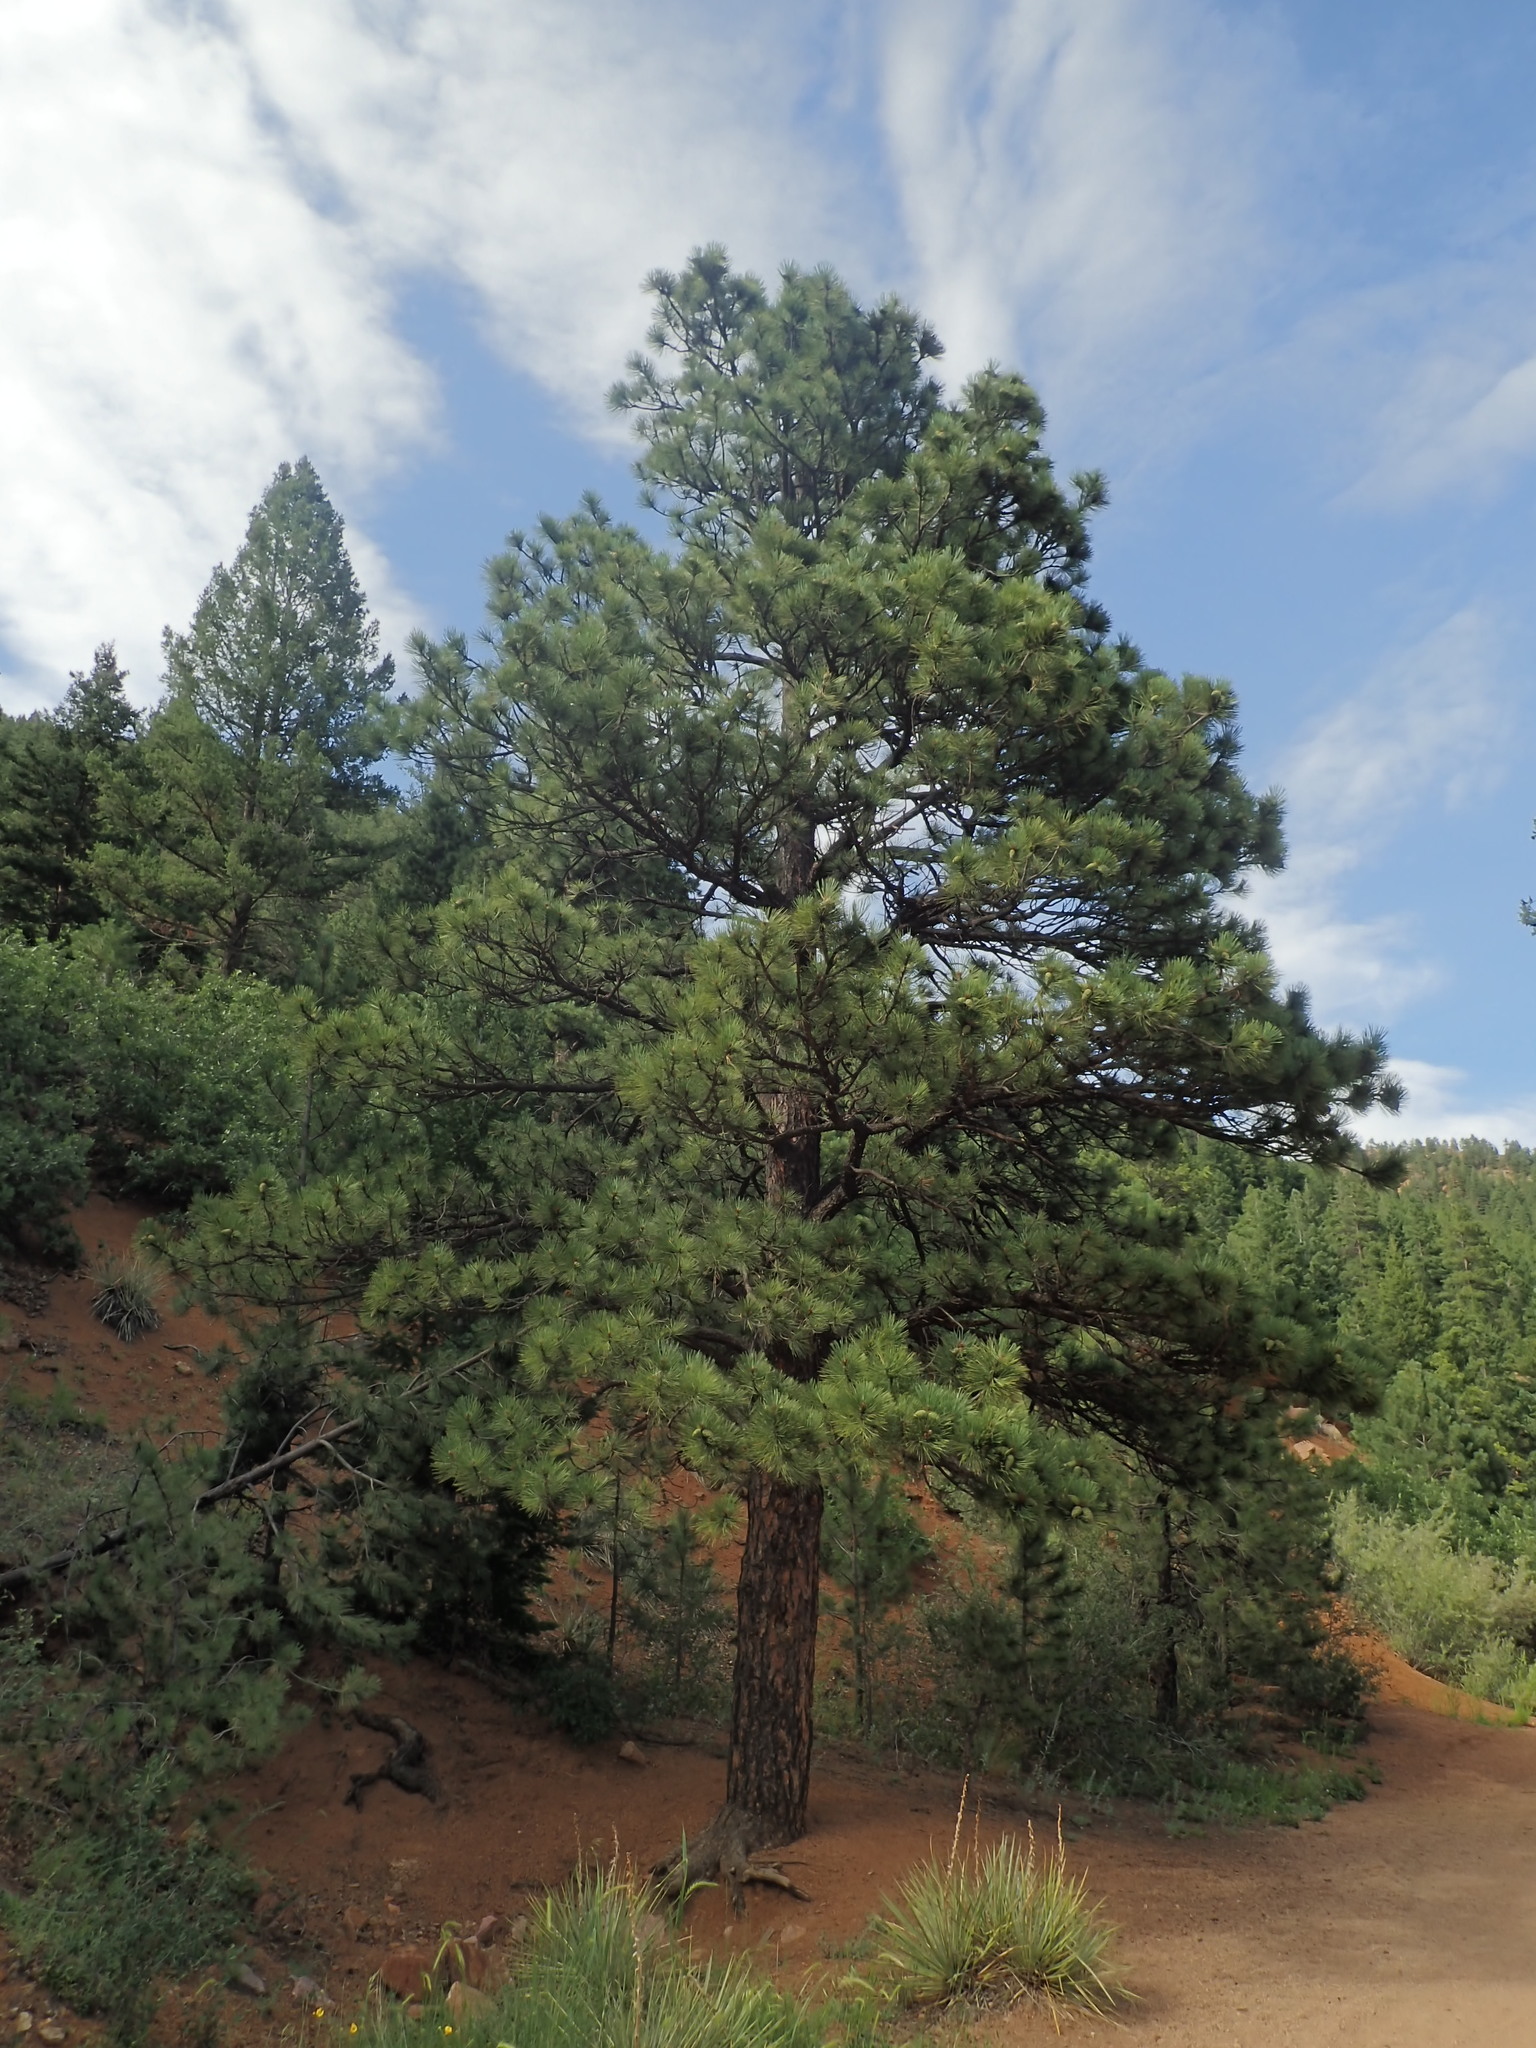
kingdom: Plantae
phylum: Tracheophyta
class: Pinopsida
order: Pinales
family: Pinaceae
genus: Pinus
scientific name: Pinus ponderosa
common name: Western yellow-pine
